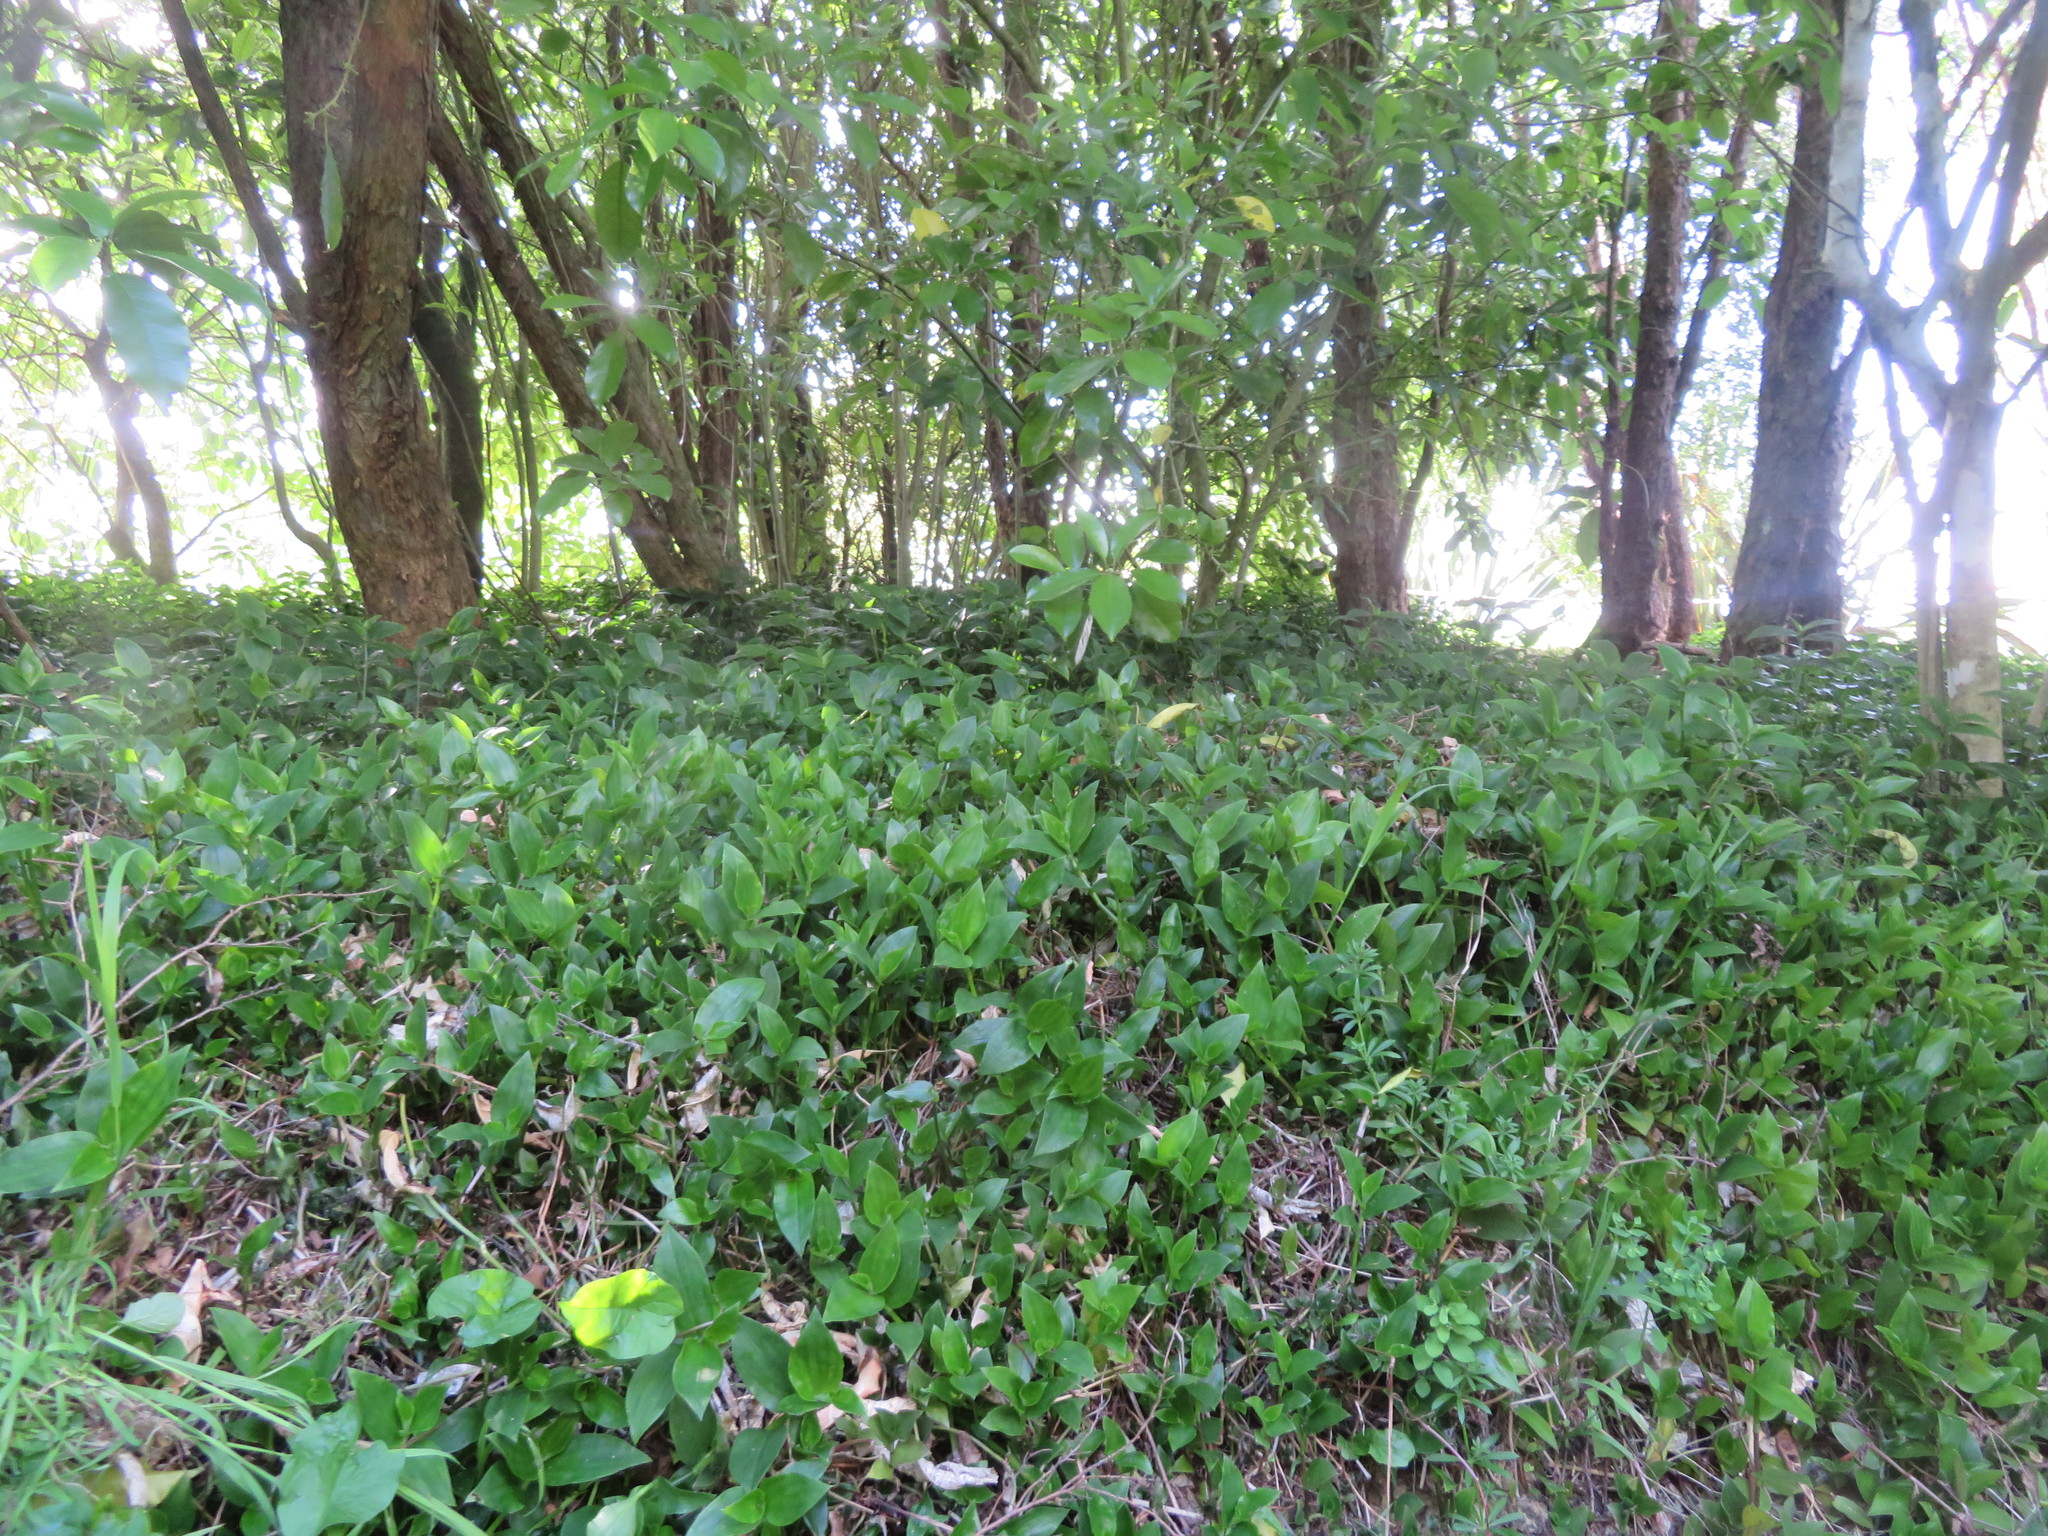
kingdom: Plantae
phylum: Tracheophyta
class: Liliopsida
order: Commelinales
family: Commelinaceae
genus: Tradescantia
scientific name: Tradescantia fluminensis
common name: Wandering-jew
